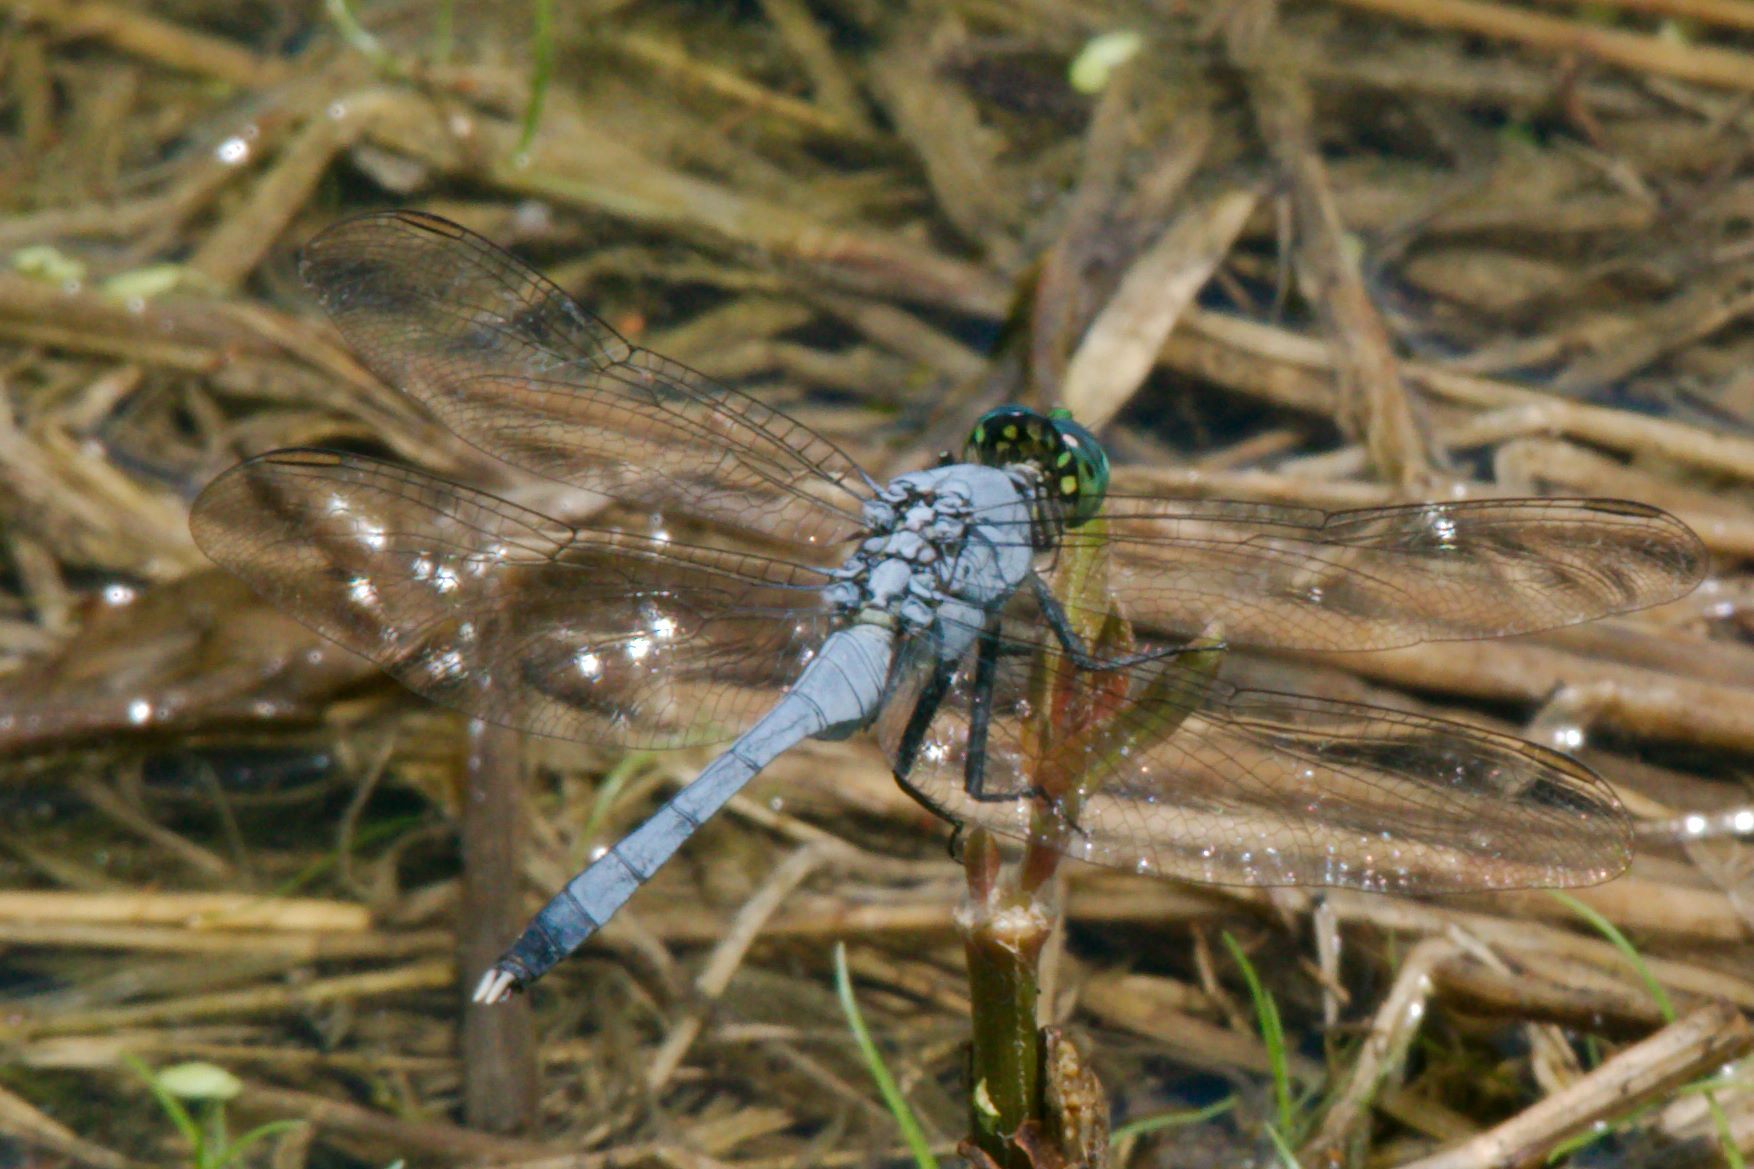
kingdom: Animalia
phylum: Arthropoda
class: Insecta
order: Odonata
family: Libellulidae
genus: Erythemis
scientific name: Erythemis simplicicollis
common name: Eastern pondhawk
